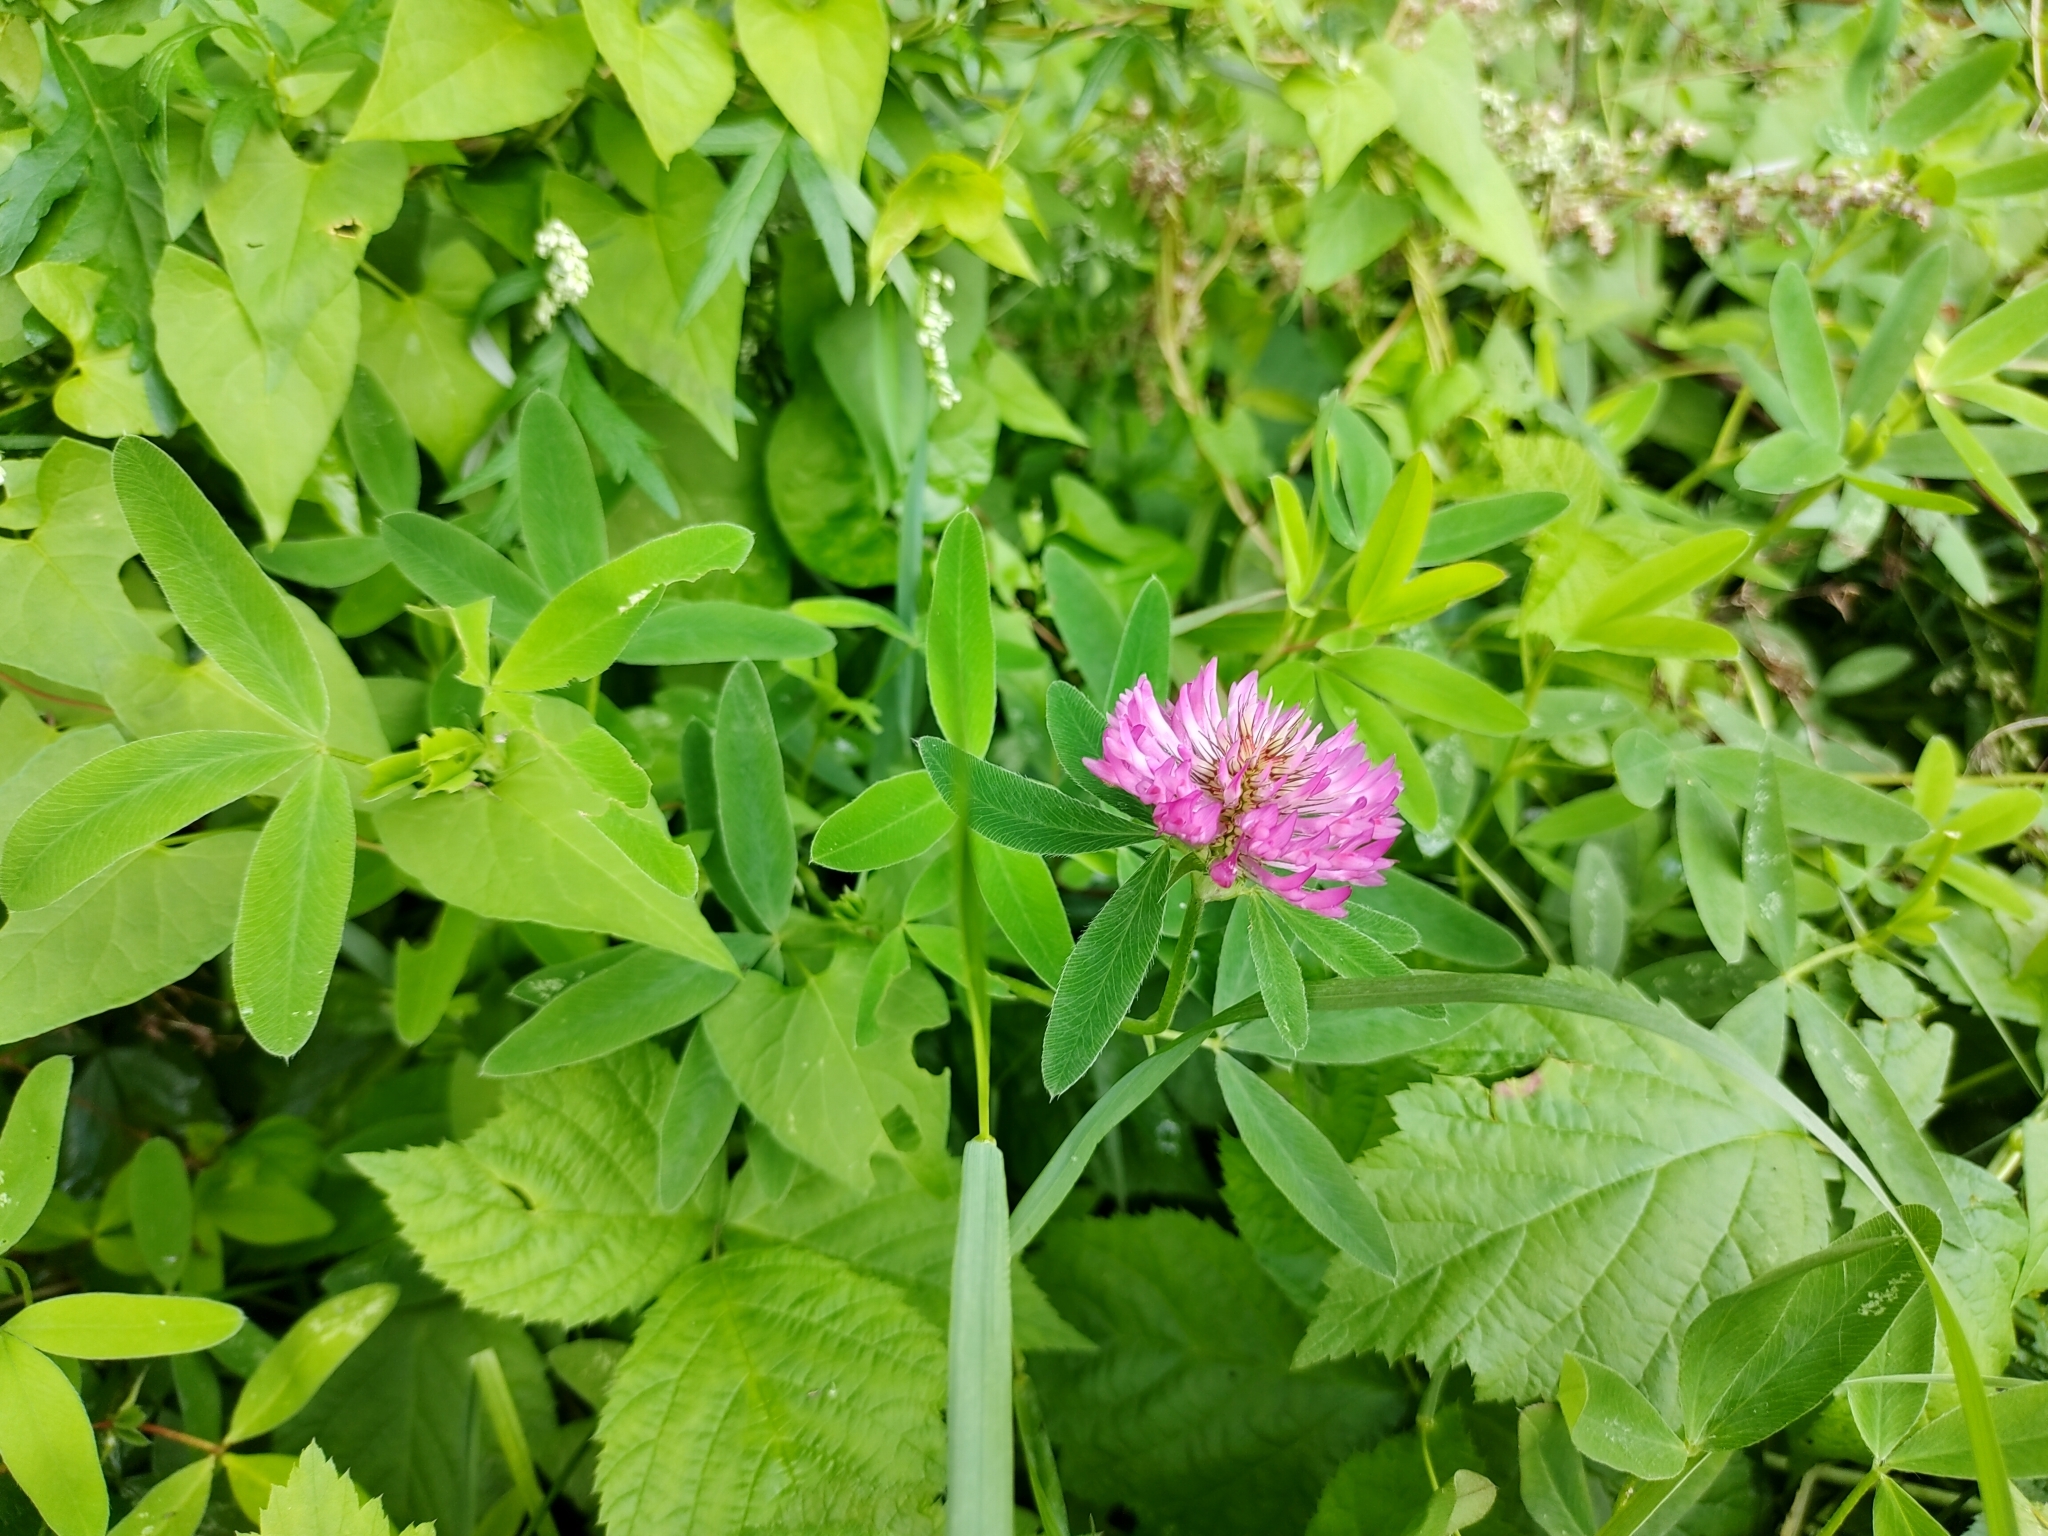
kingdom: Plantae
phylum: Tracheophyta
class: Magnoliopsida
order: Fabales
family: Fabaceae
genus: Trifolium
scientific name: Trifolium medium
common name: Zigzag clover
